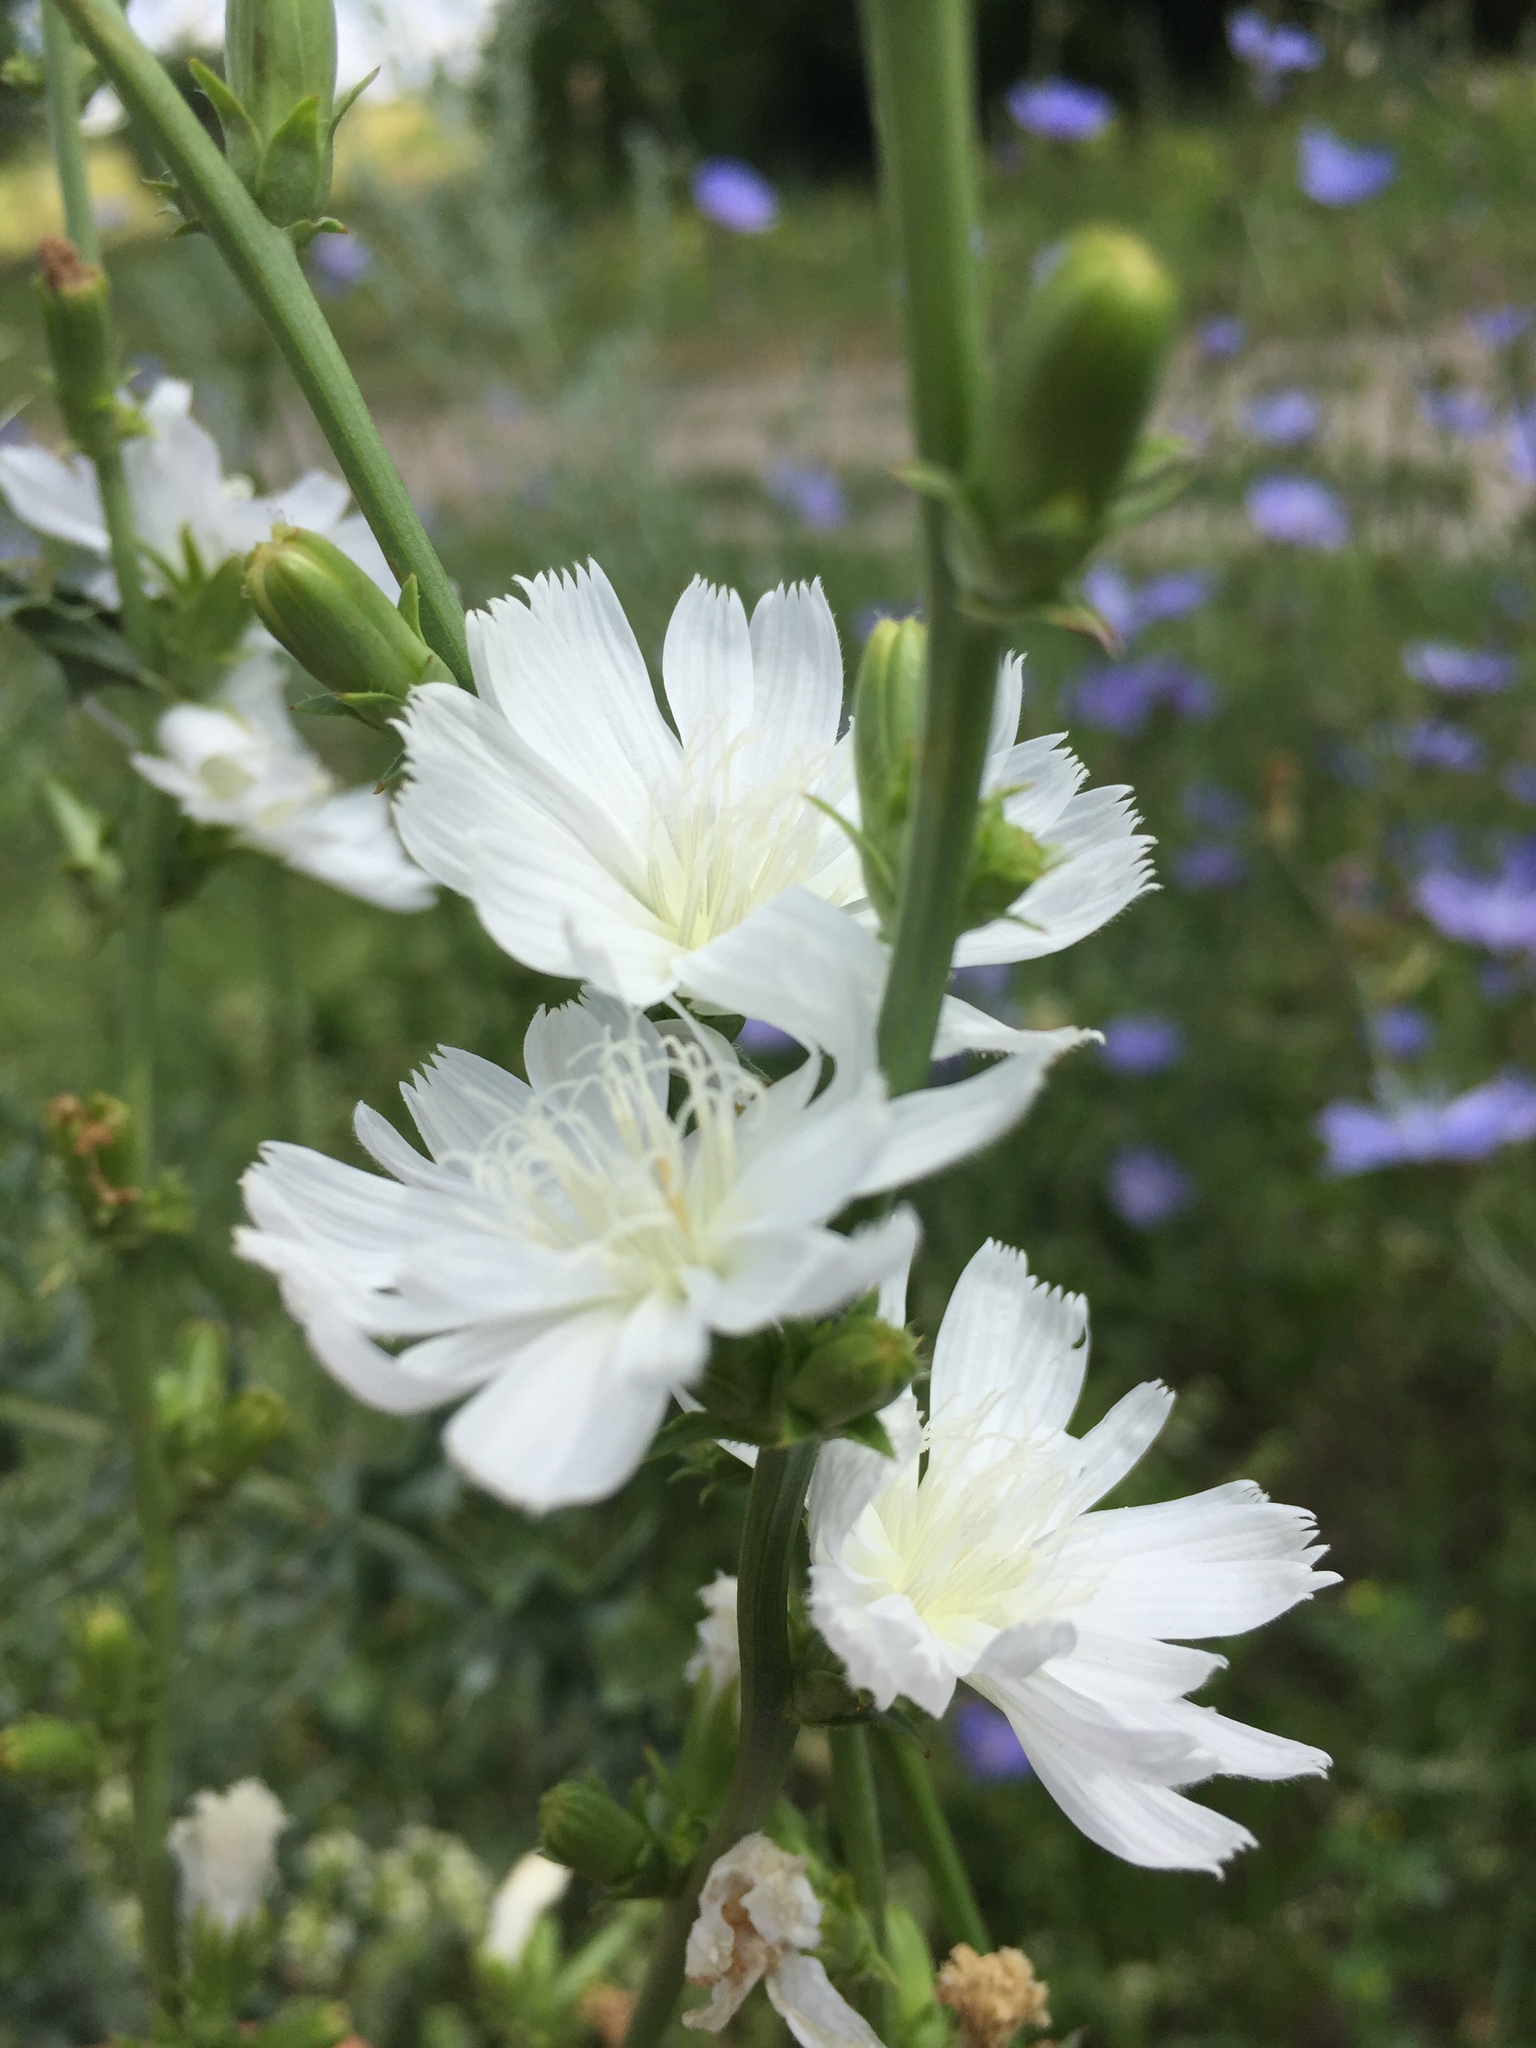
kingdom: Plantae
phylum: Tracheophyta
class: Magnoliopsida
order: Asterales
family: Asteraceae
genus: Cichorium
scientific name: Cichorium intybus
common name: Chicory
